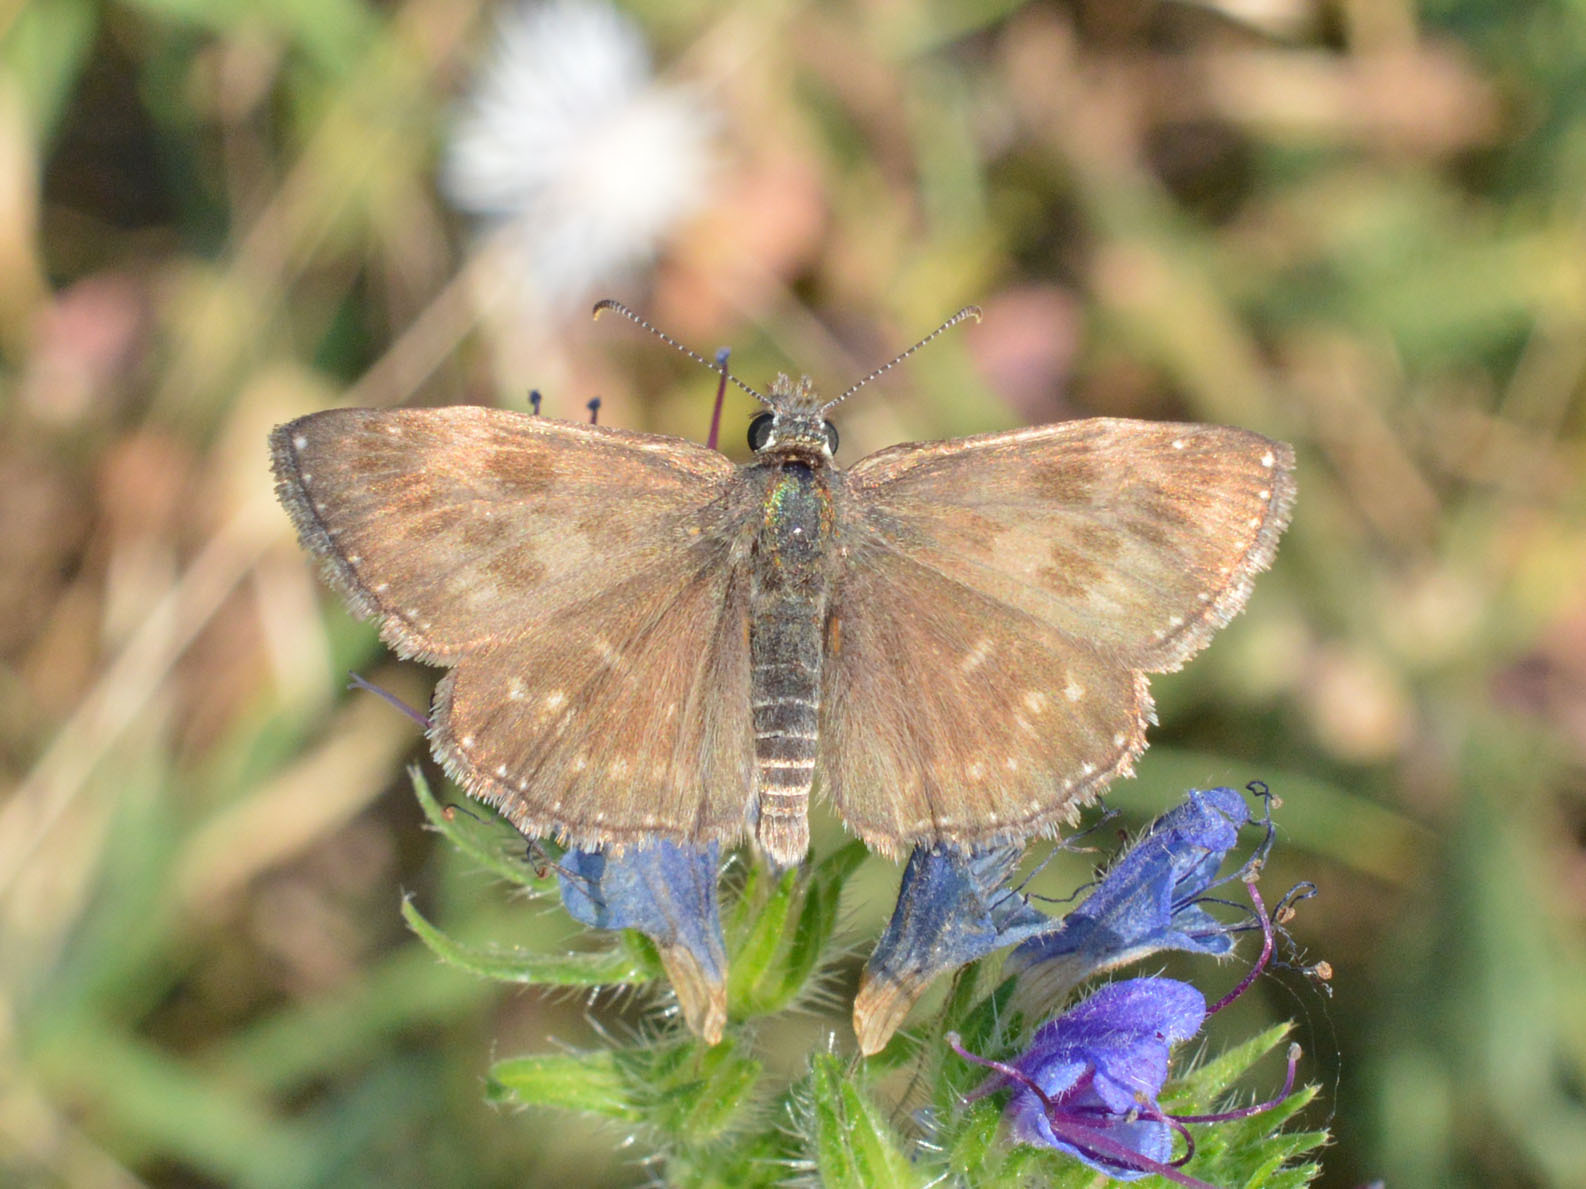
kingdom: Animalia
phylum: Arthropoda
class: Insecta
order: Lepidoptera
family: Hesperiidae
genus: Erynnis
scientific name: Erynnis tages
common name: Dingy skipper
